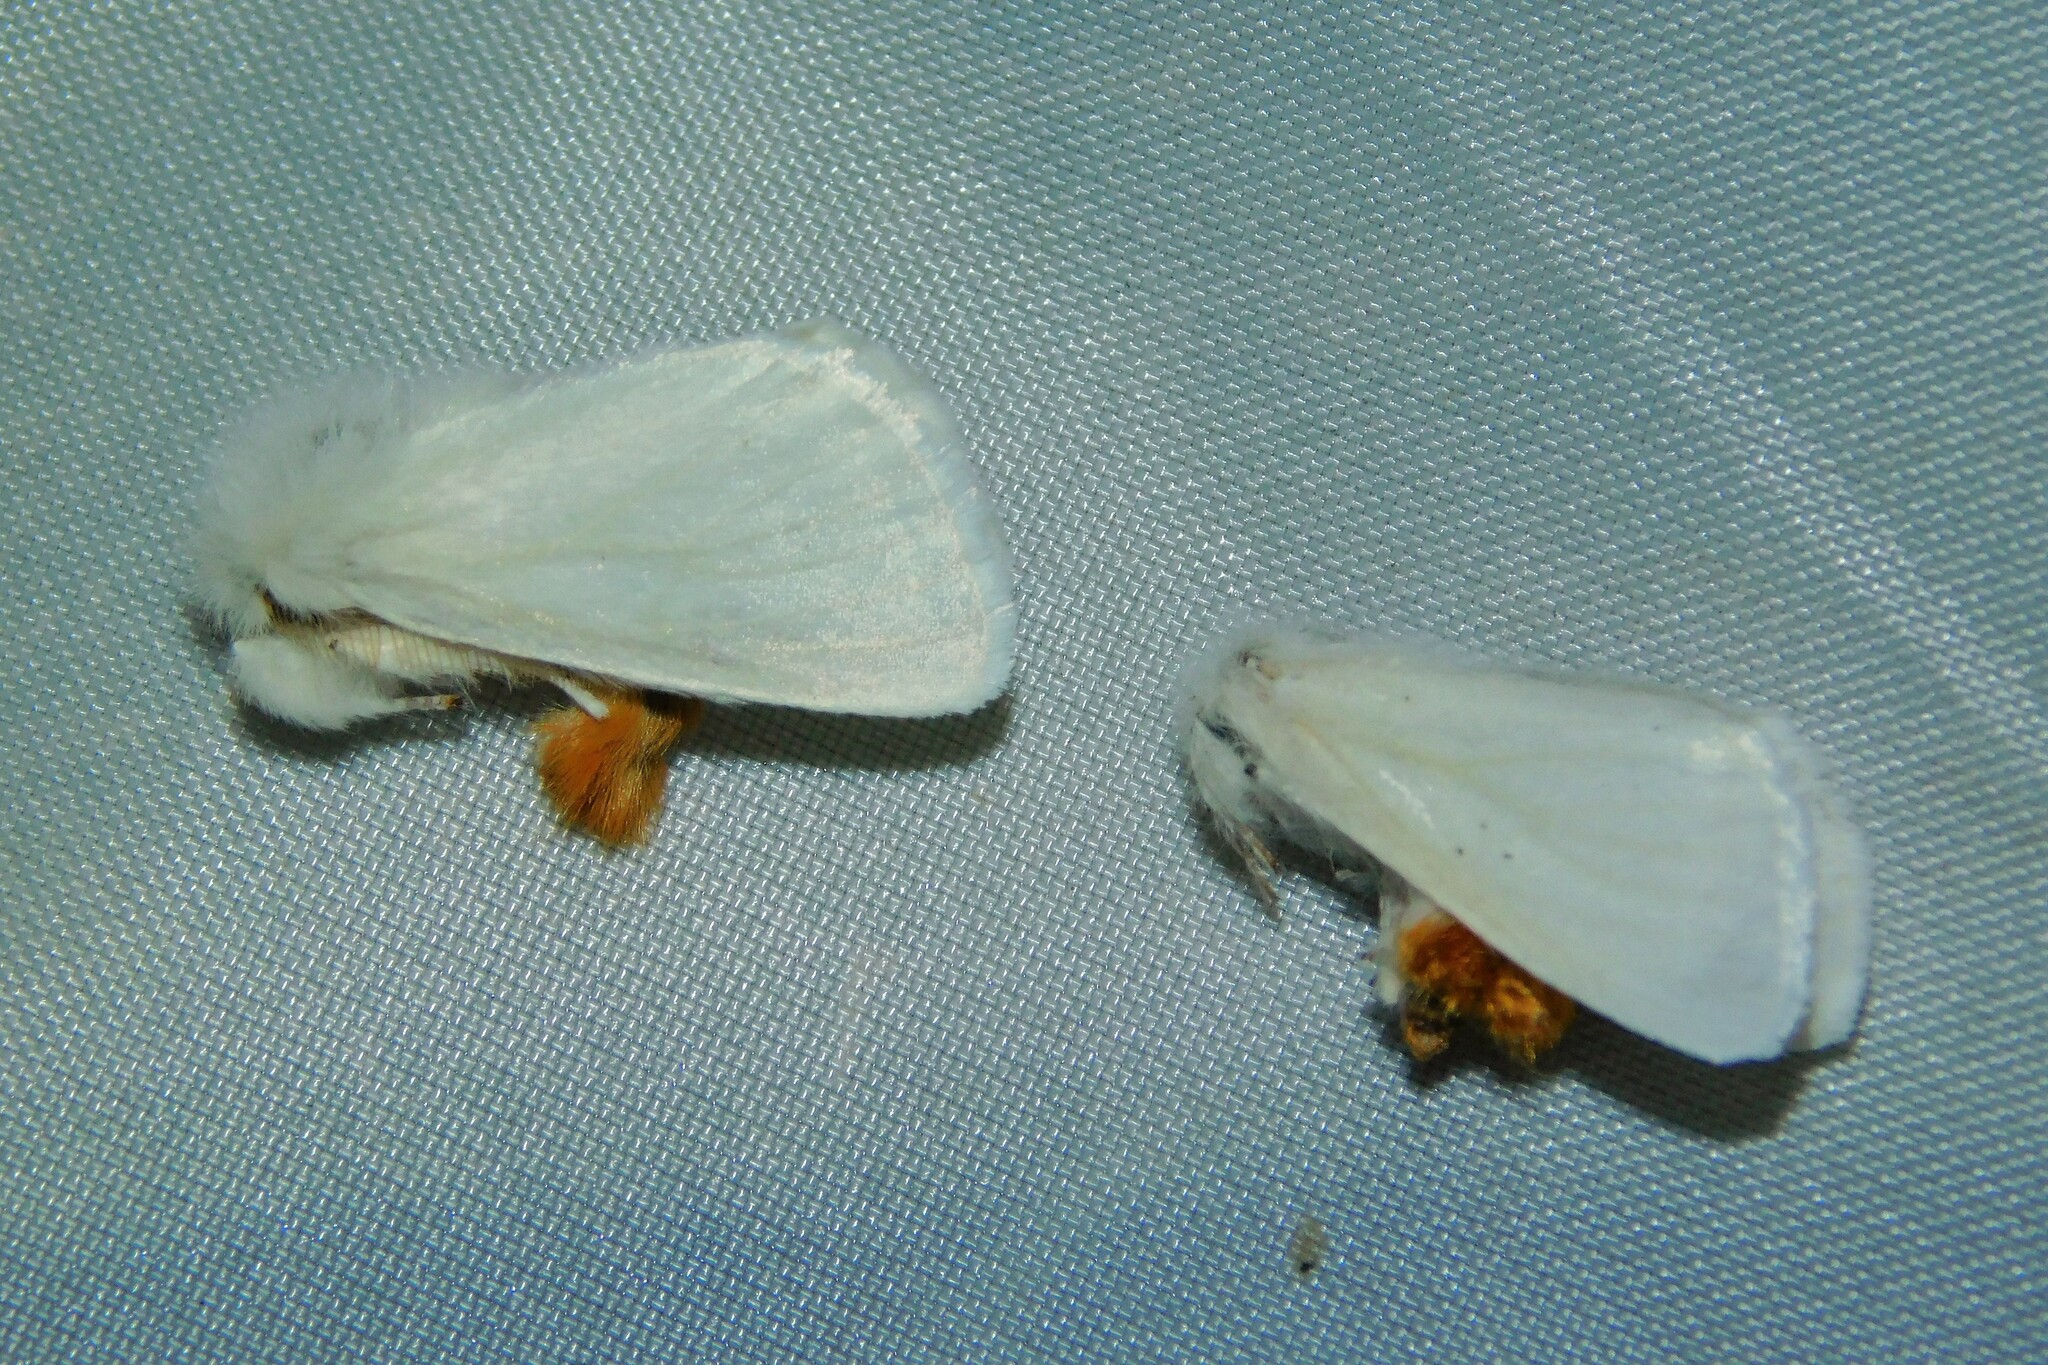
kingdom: Animalia
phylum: Arthropoda
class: Insecta
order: Lepidoptera
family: Erebidae
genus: Euproctis
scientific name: Euproctis chrysorrhoea
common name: Brown-tail
